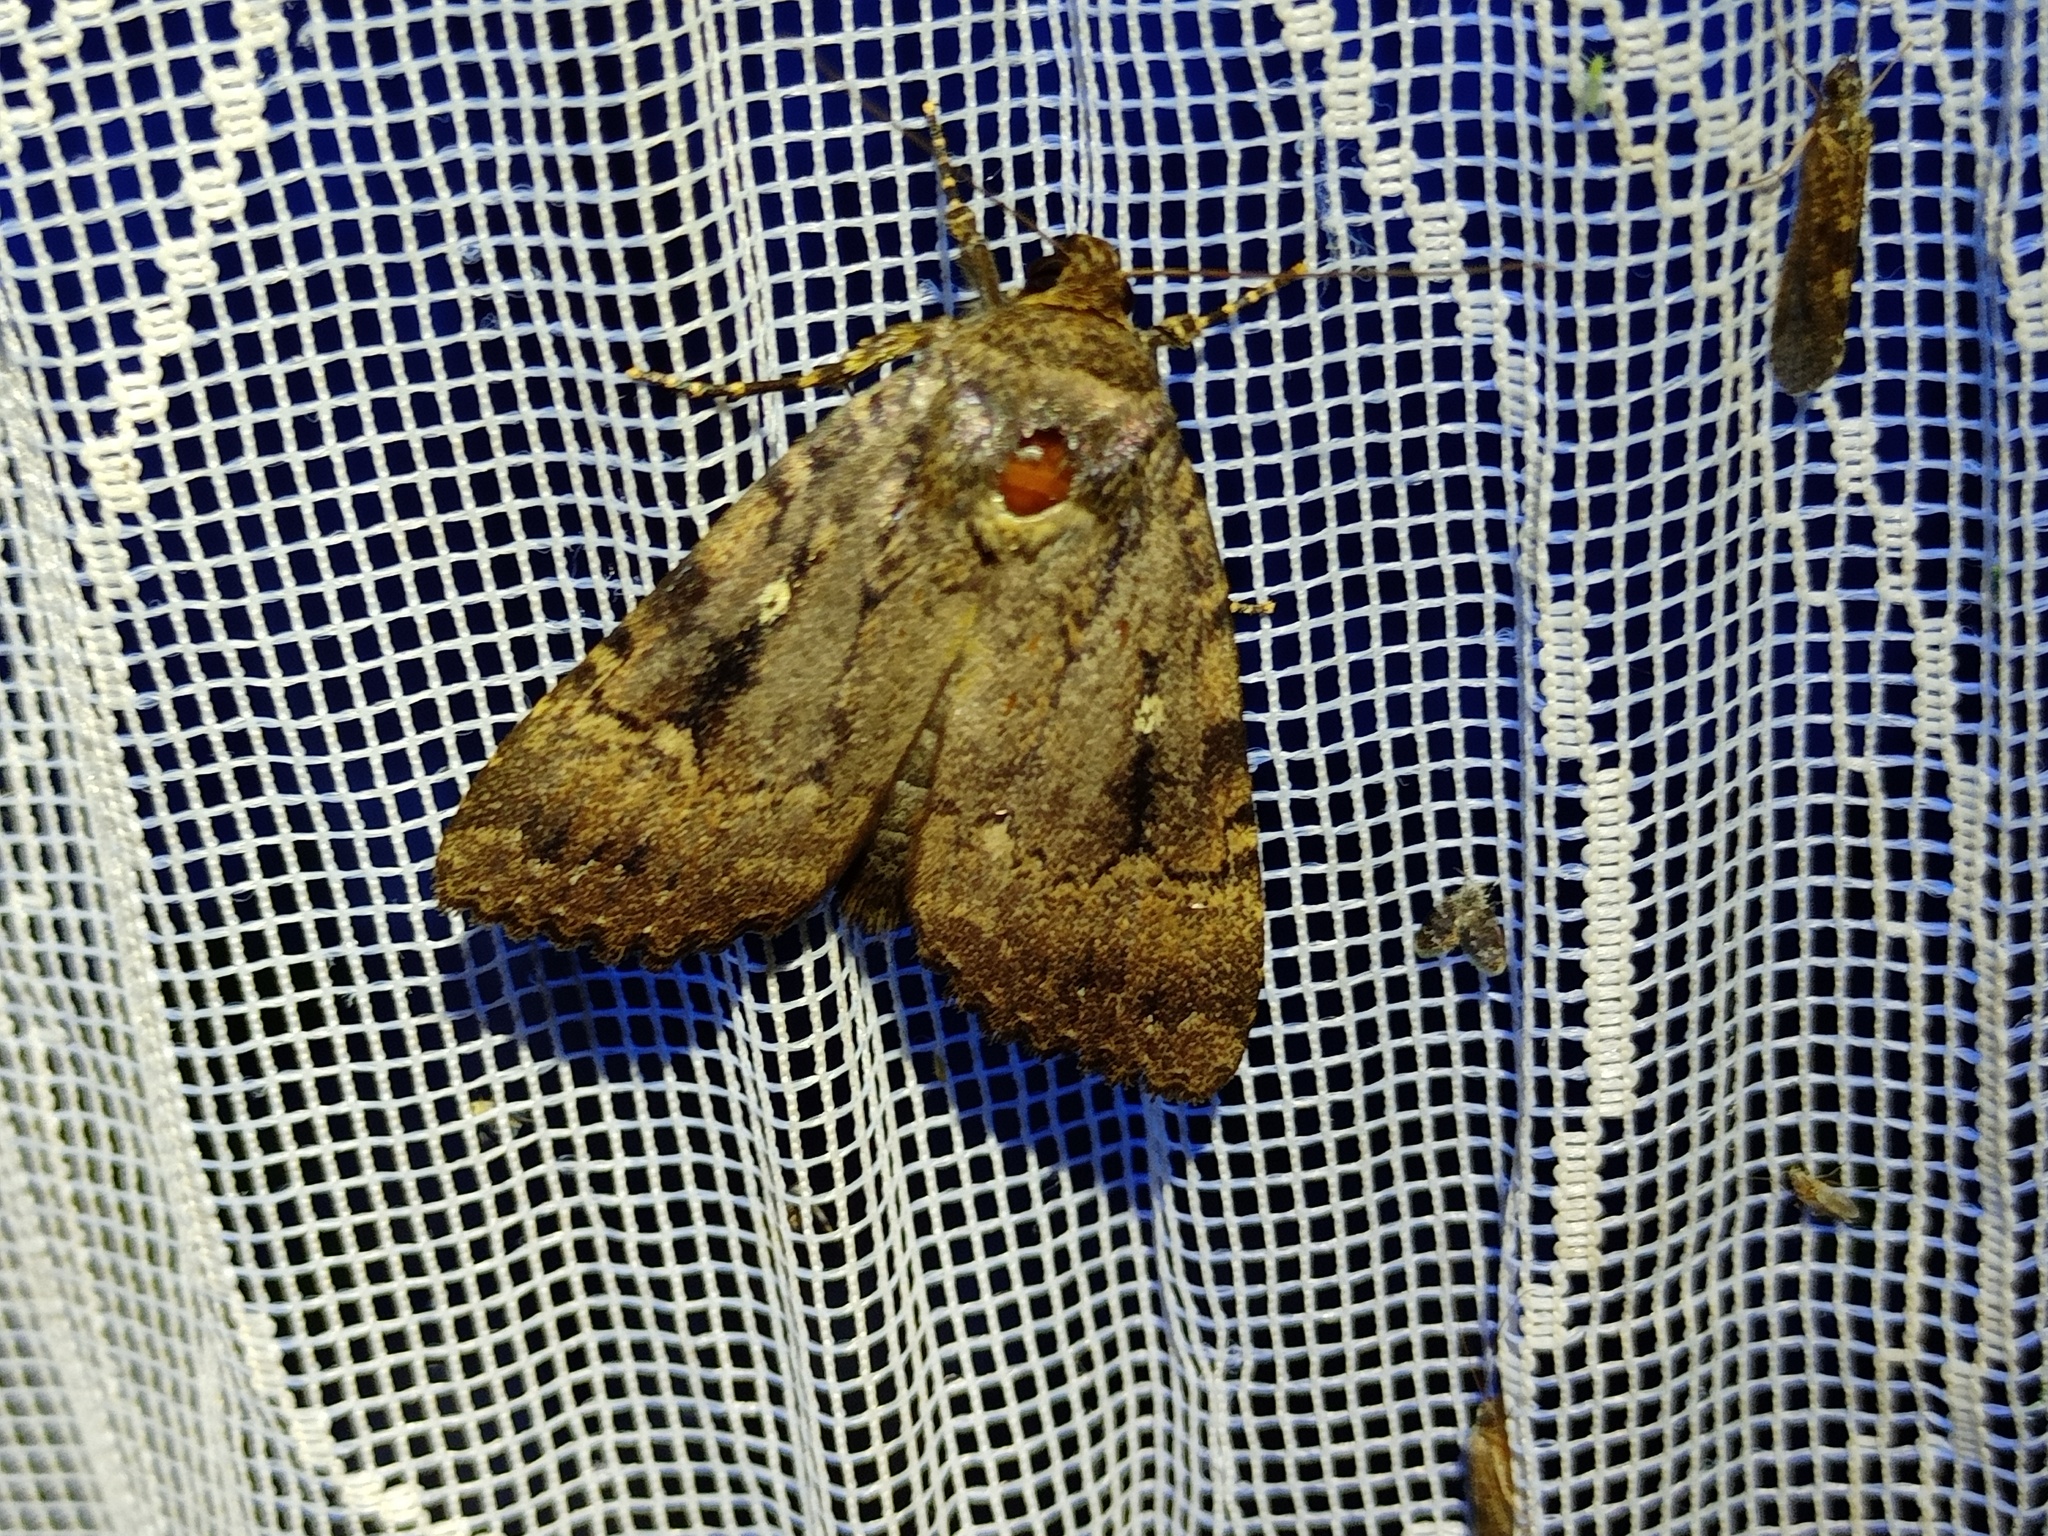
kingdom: Animalia
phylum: Arthropoda
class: Insecta
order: Lepidoptera
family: Noctuidae
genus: Amphipyra
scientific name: Amphipyra pyramidea
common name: Copper underwing
